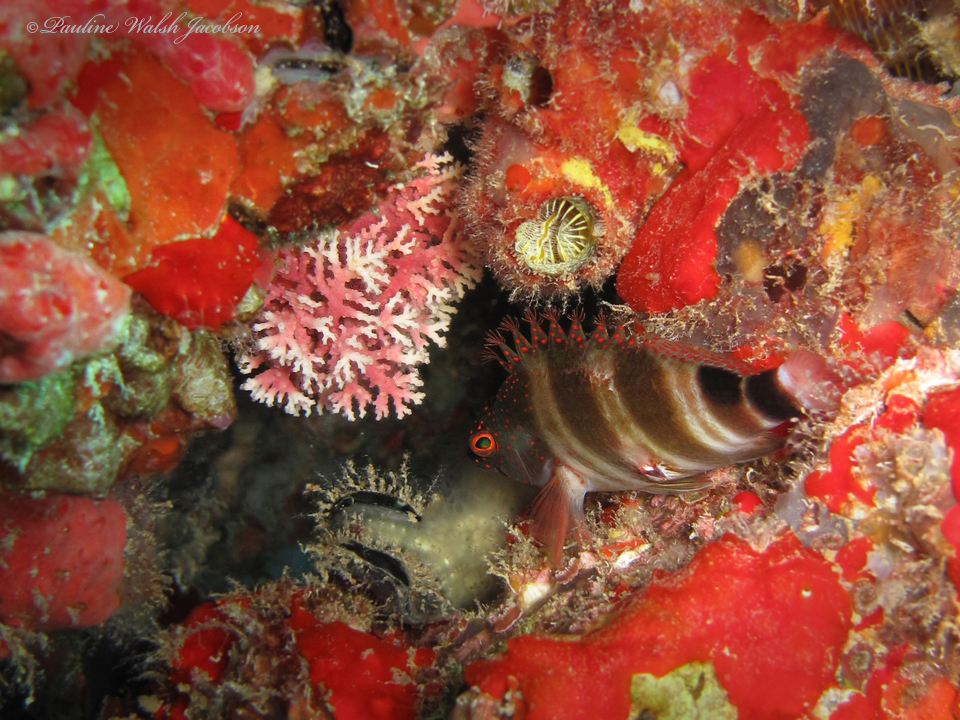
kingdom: Animalia
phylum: Chordata
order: Perciformes
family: Cirrhitidae
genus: Amblycirrhitus
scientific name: Amblycirrhitus pinos
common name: Redspotted hawkfish
